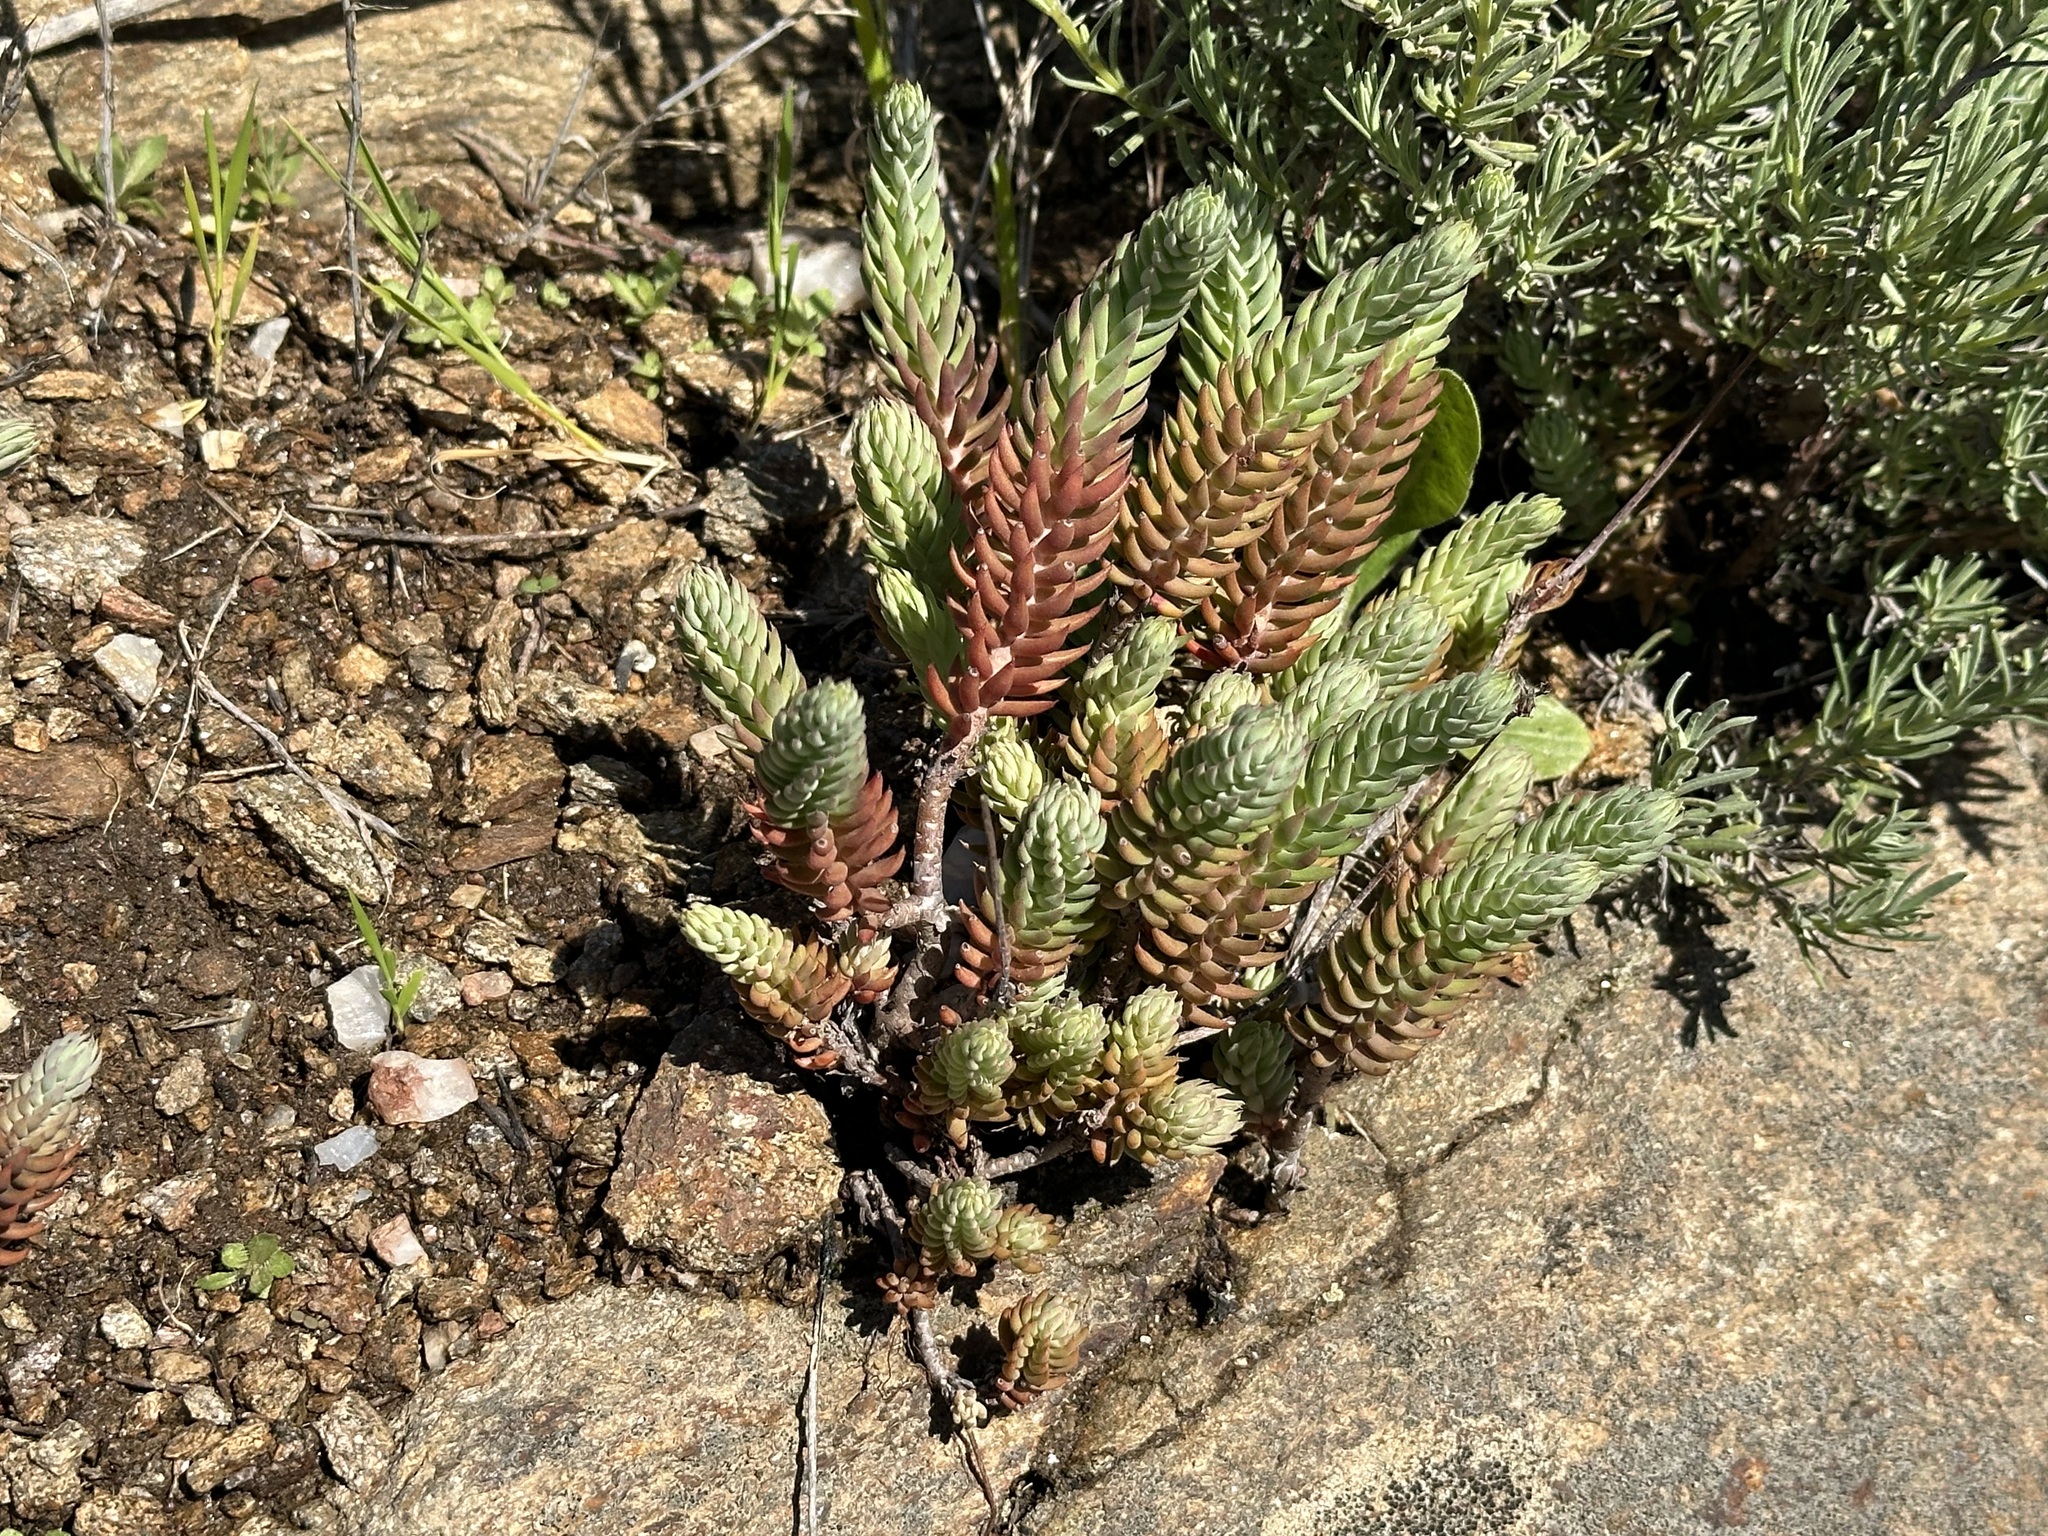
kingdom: Plantae
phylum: Tracheophyta
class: Magnoliopsida
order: Saxifragales
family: Crassulaceae
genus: Petrosedum
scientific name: Petrosedum sediforme
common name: Pale stonecrop
